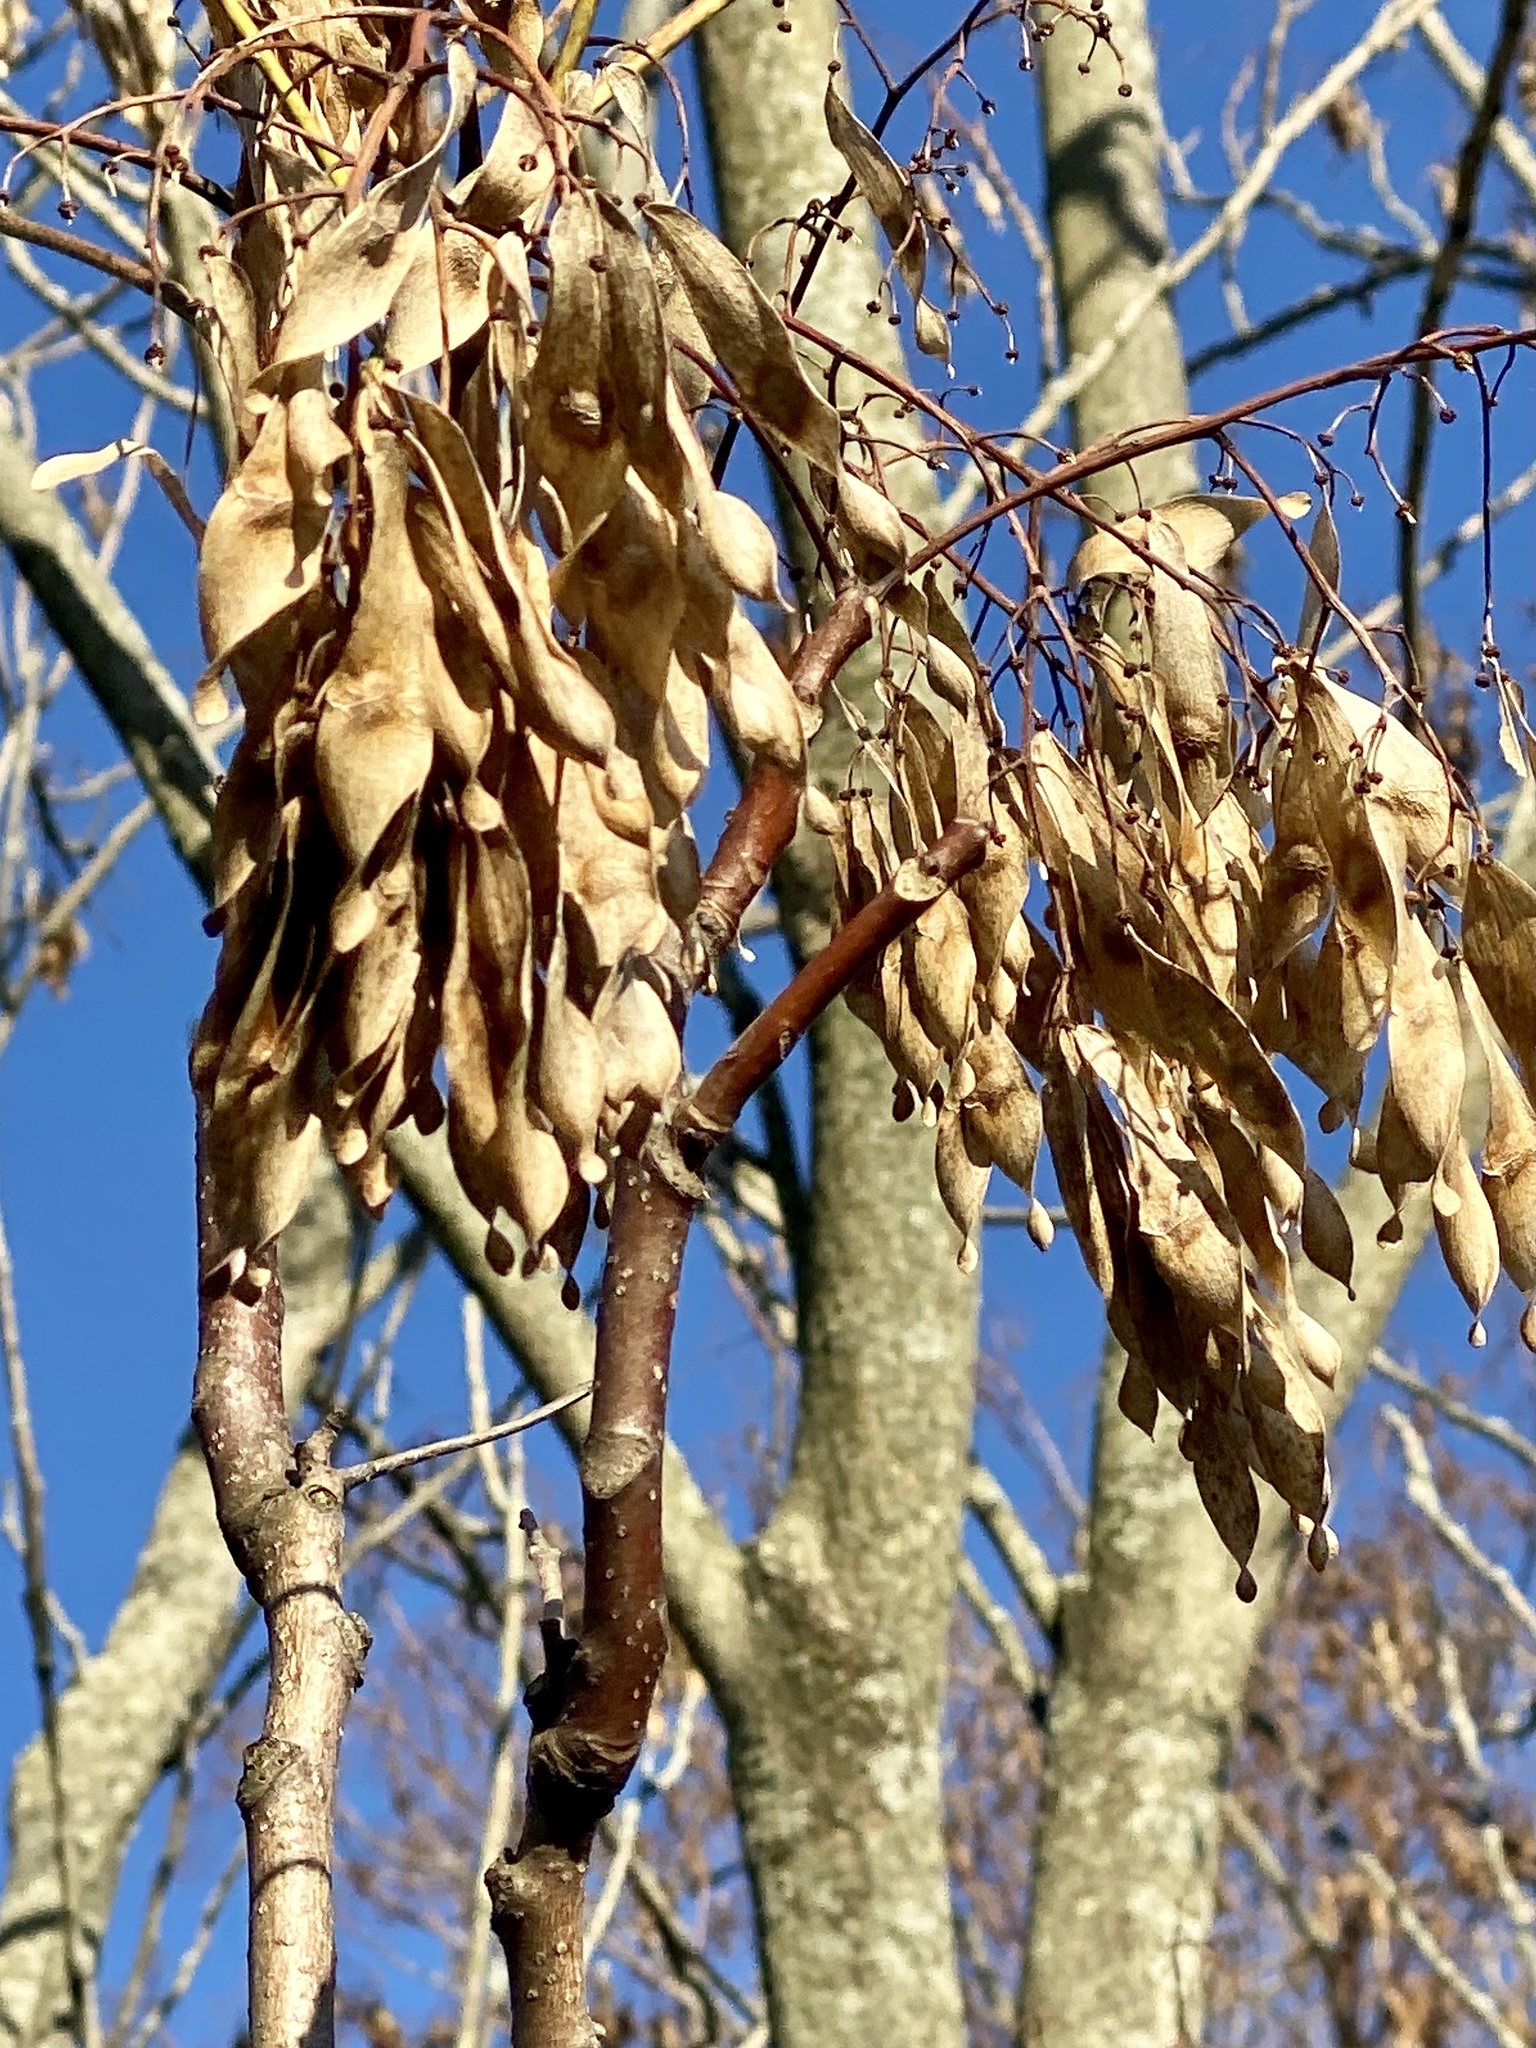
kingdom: Plantae
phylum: Tracheophyta
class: Magnoliopsida
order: Sapindales
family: Simaroubaceae
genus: Ailanthus
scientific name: Ailanthus altissima
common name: Tree-of-heaven
